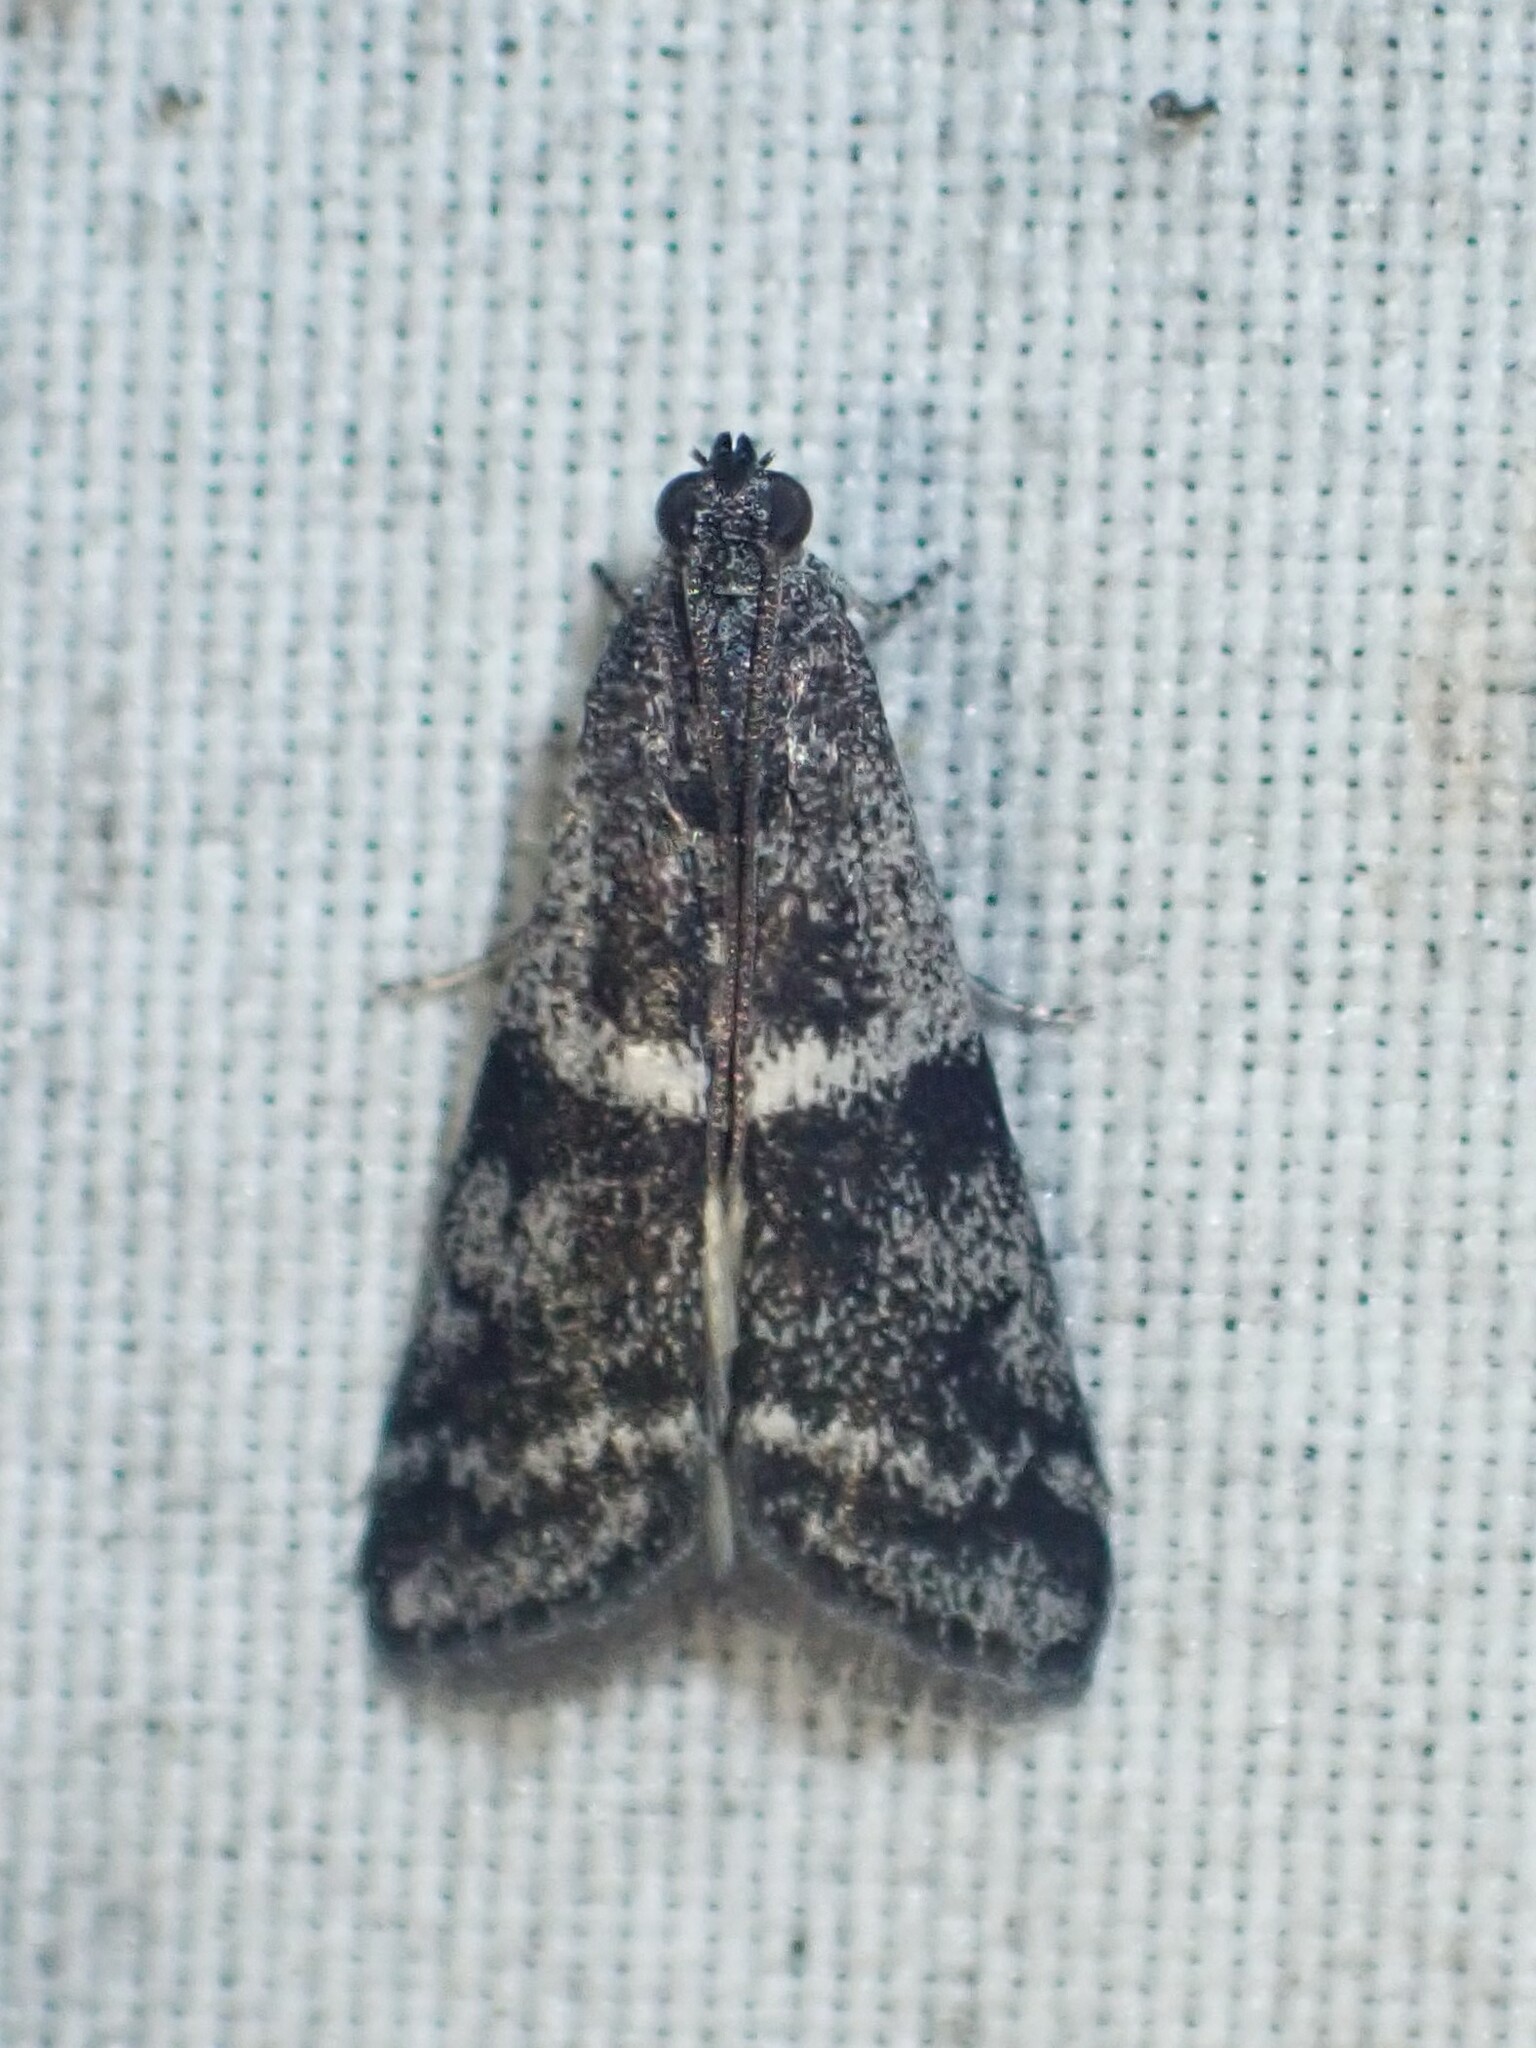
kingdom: Animalia
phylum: Arthropoda
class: Insecta
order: Lepidoptera
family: Pyralidae
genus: Apomyelois
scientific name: Apomyelois bistriatella
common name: Heath knot-horn
